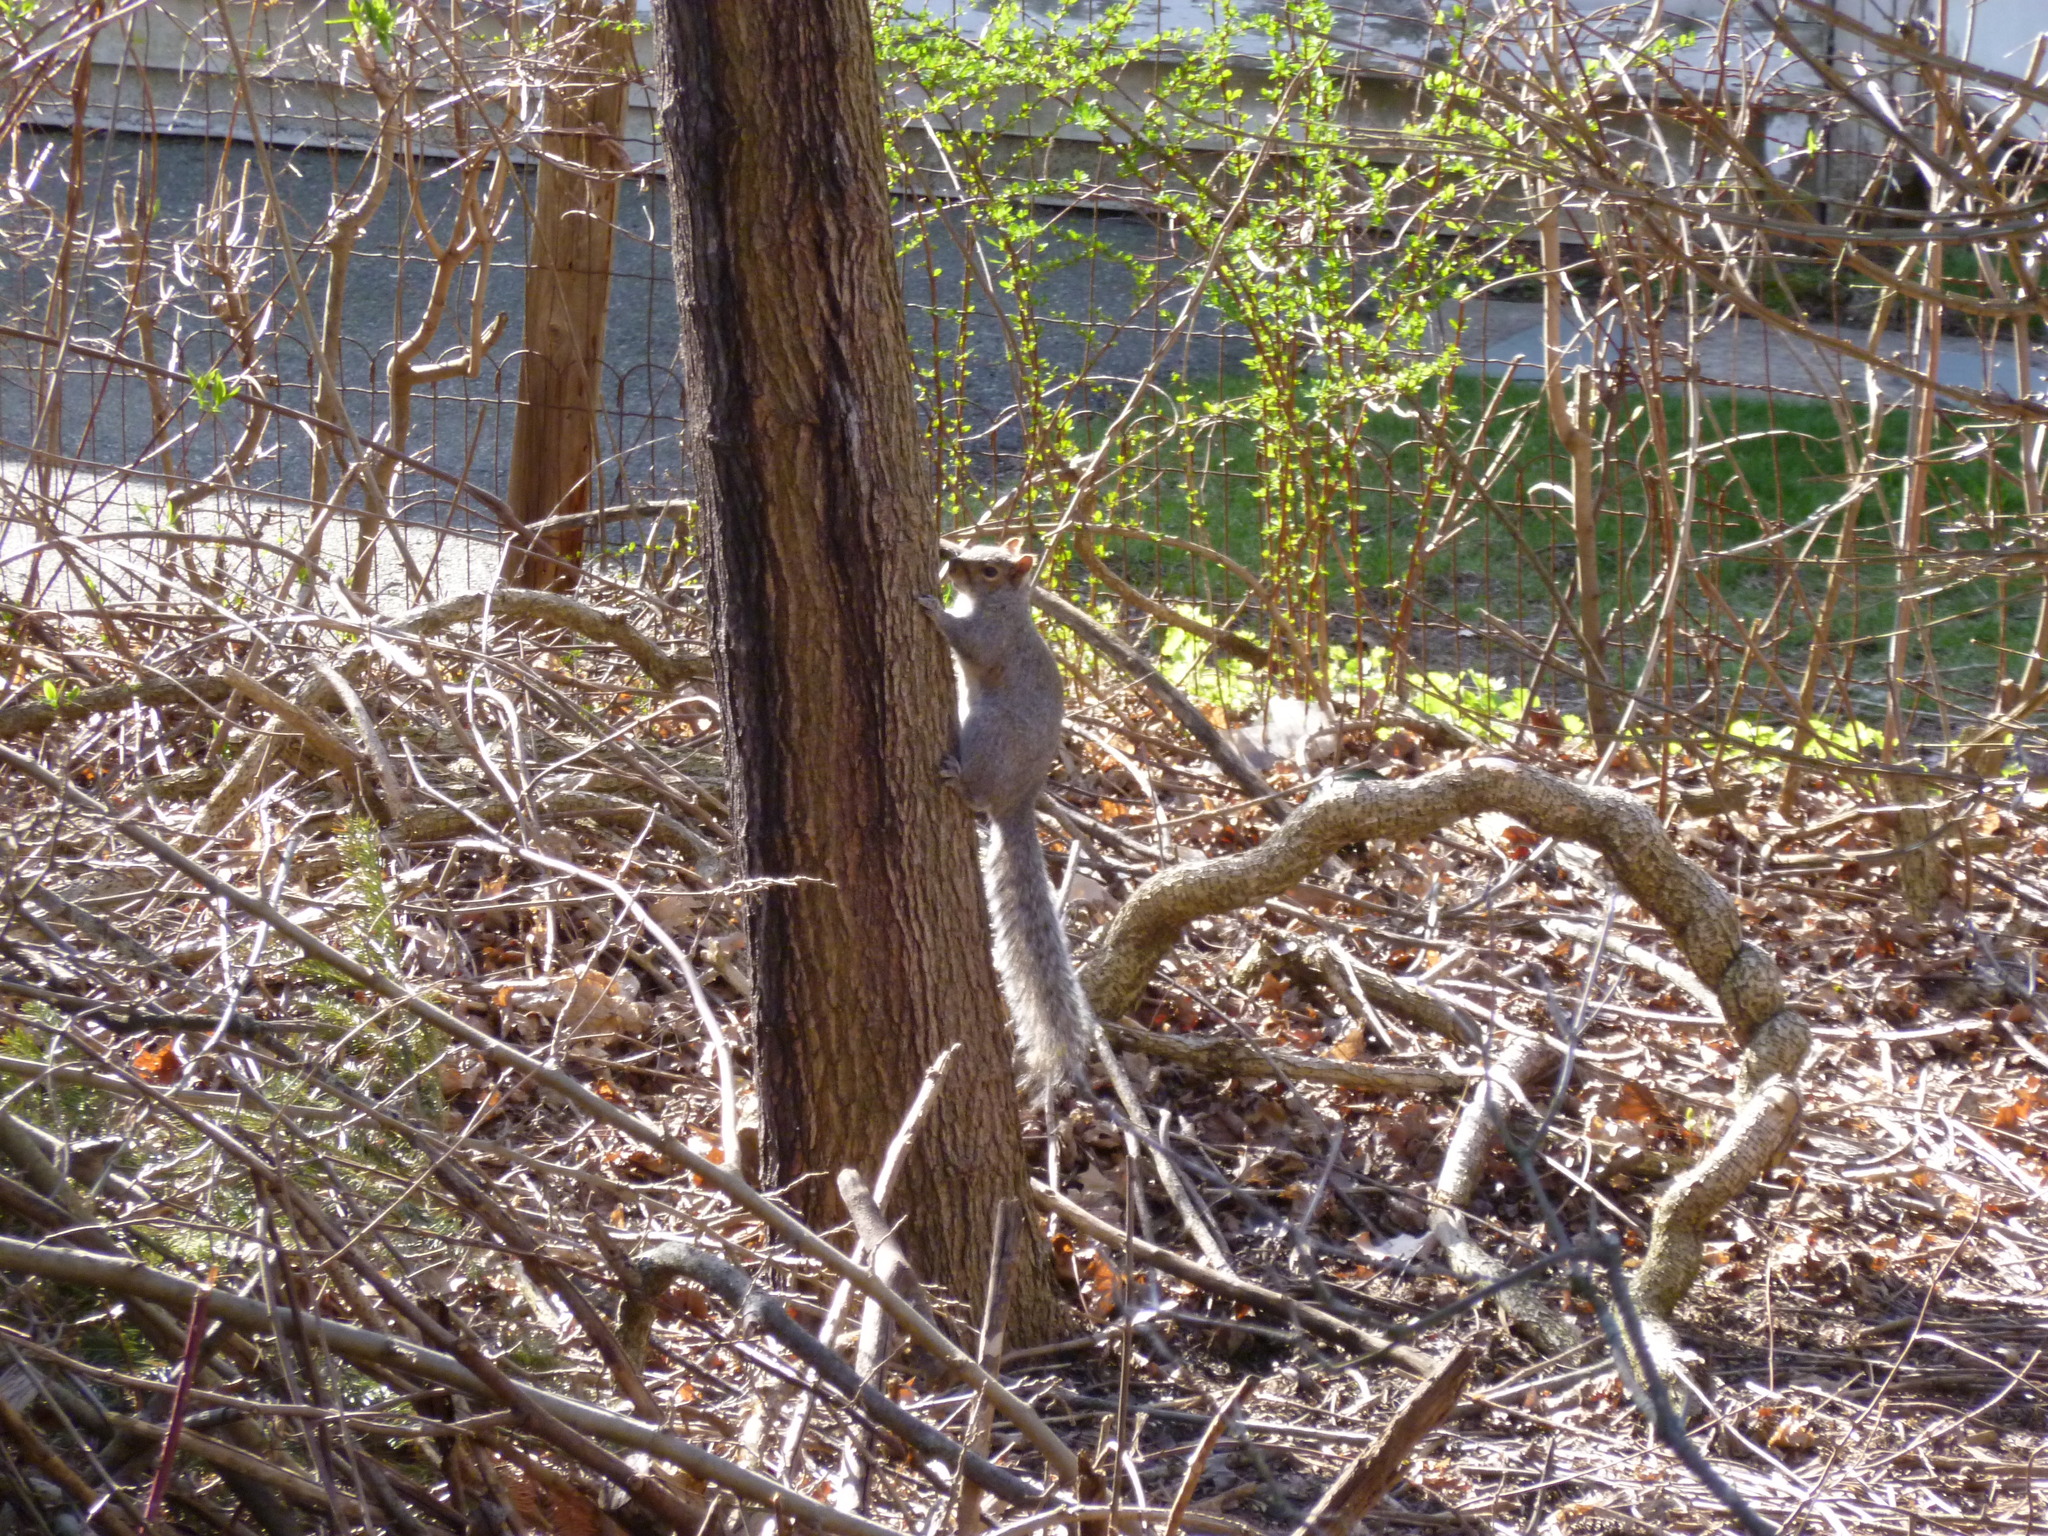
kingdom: Animalia
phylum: Chordata
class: Mammalia
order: Rodentia
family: Sciuridae
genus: Sciurus
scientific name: Sciurus carolinensis
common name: Eastern gray squirrel
